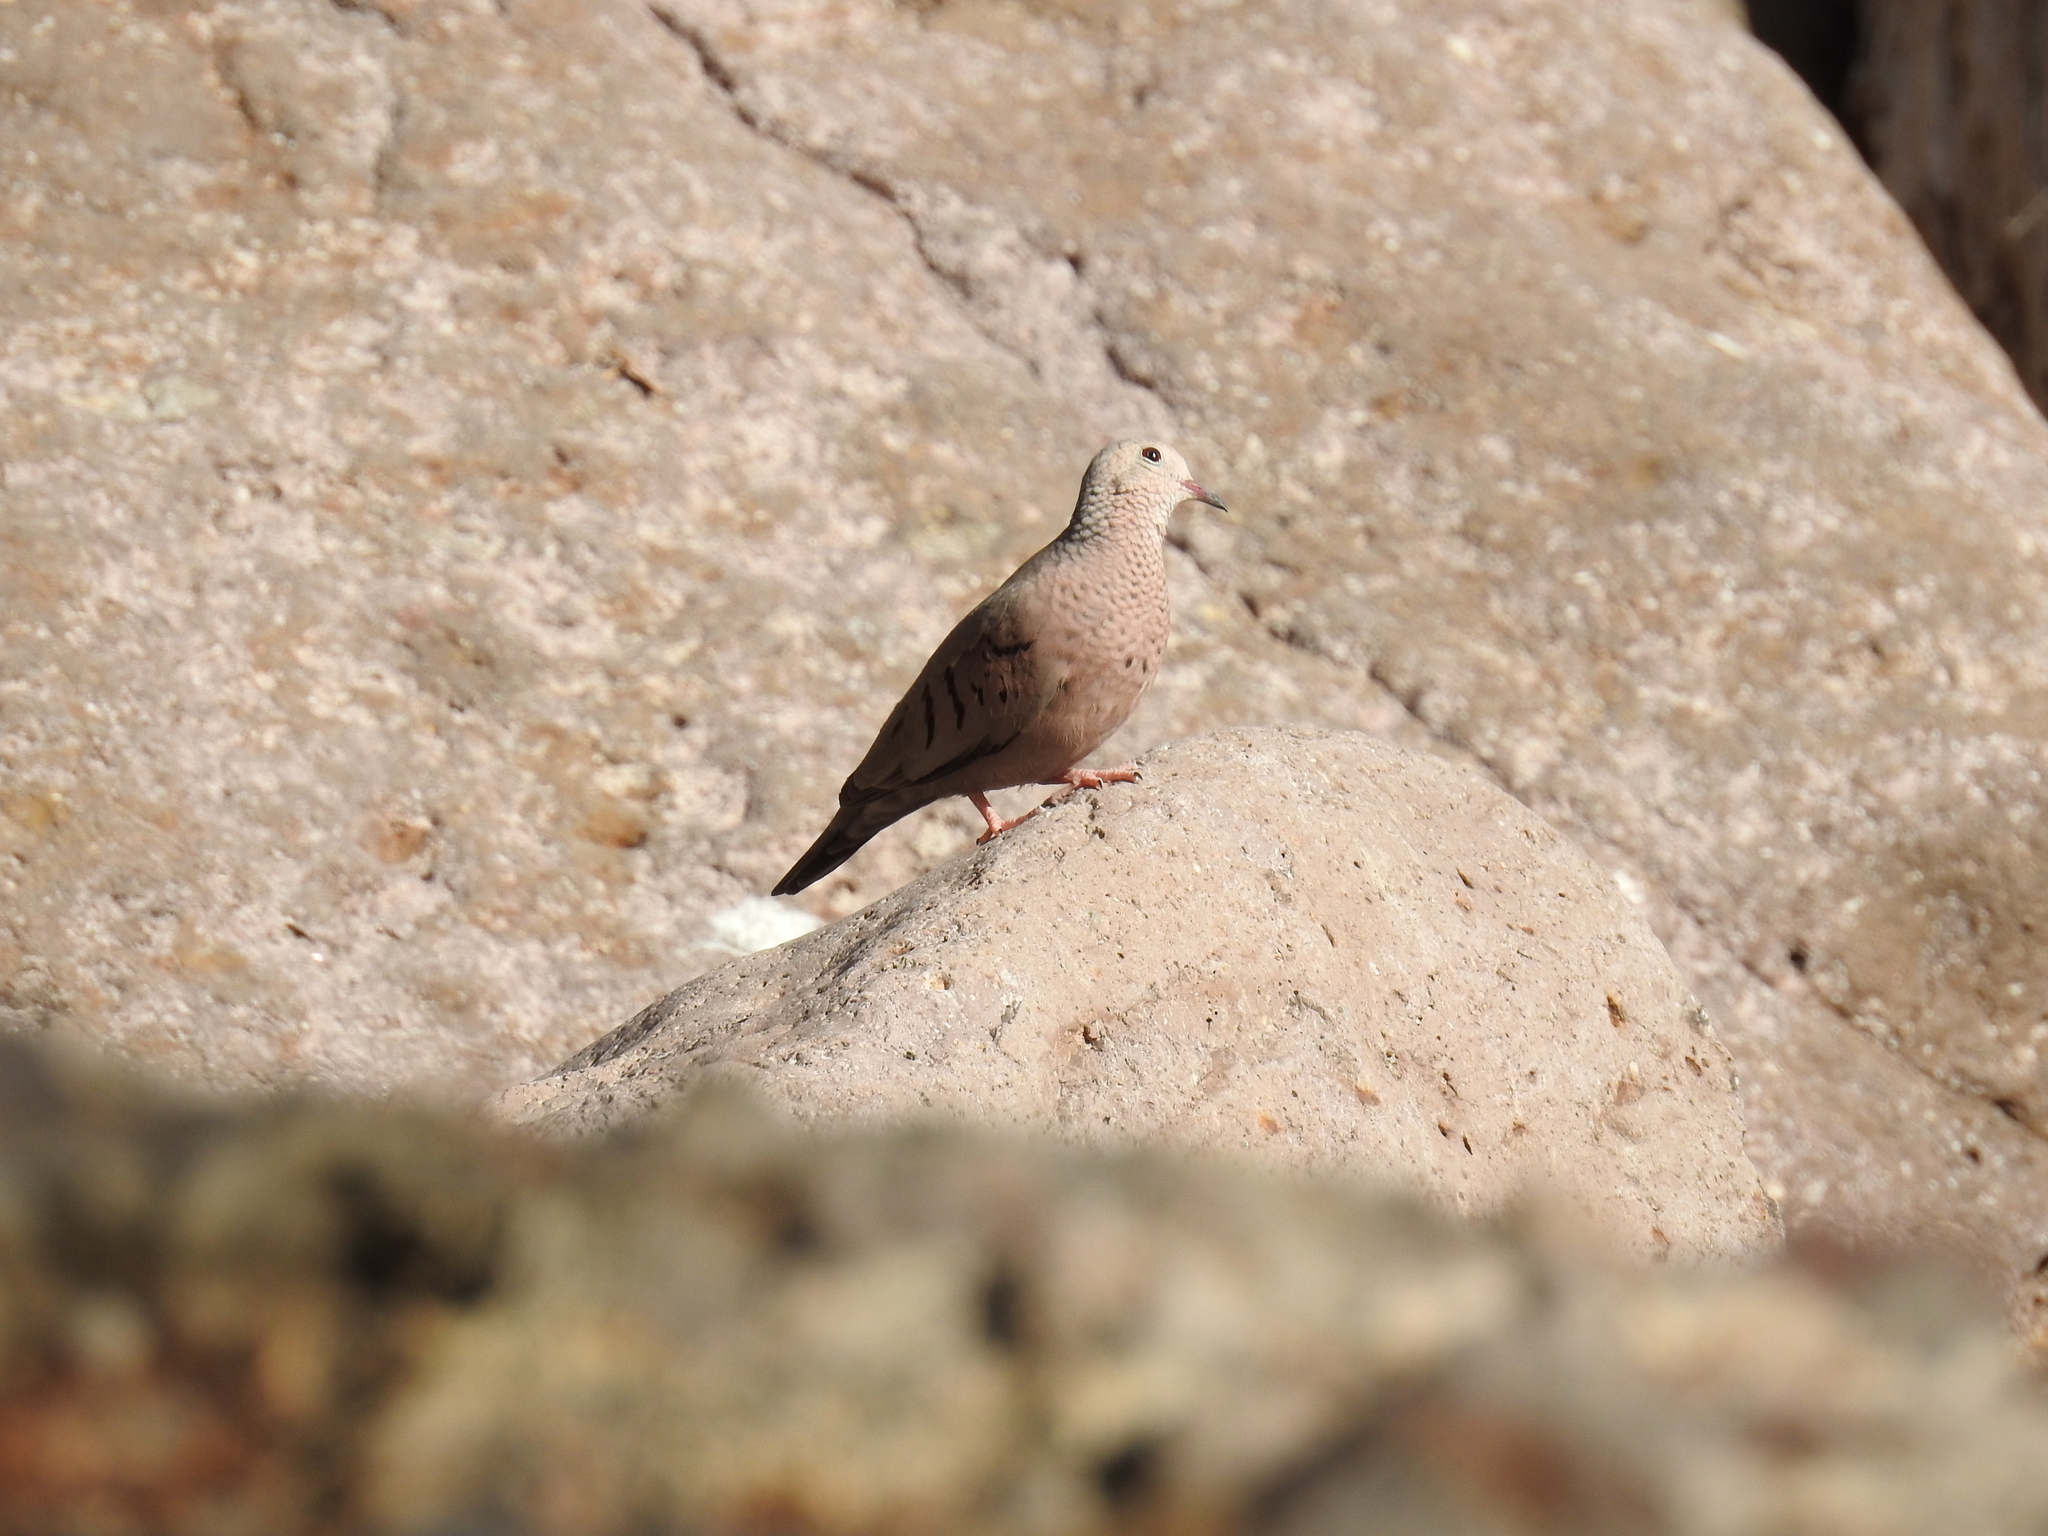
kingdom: Animalia
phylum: Chordata
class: Aves
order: Columbiformes
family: Columbidae
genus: Columbina
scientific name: Columbina passerina
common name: Common ground-dove
